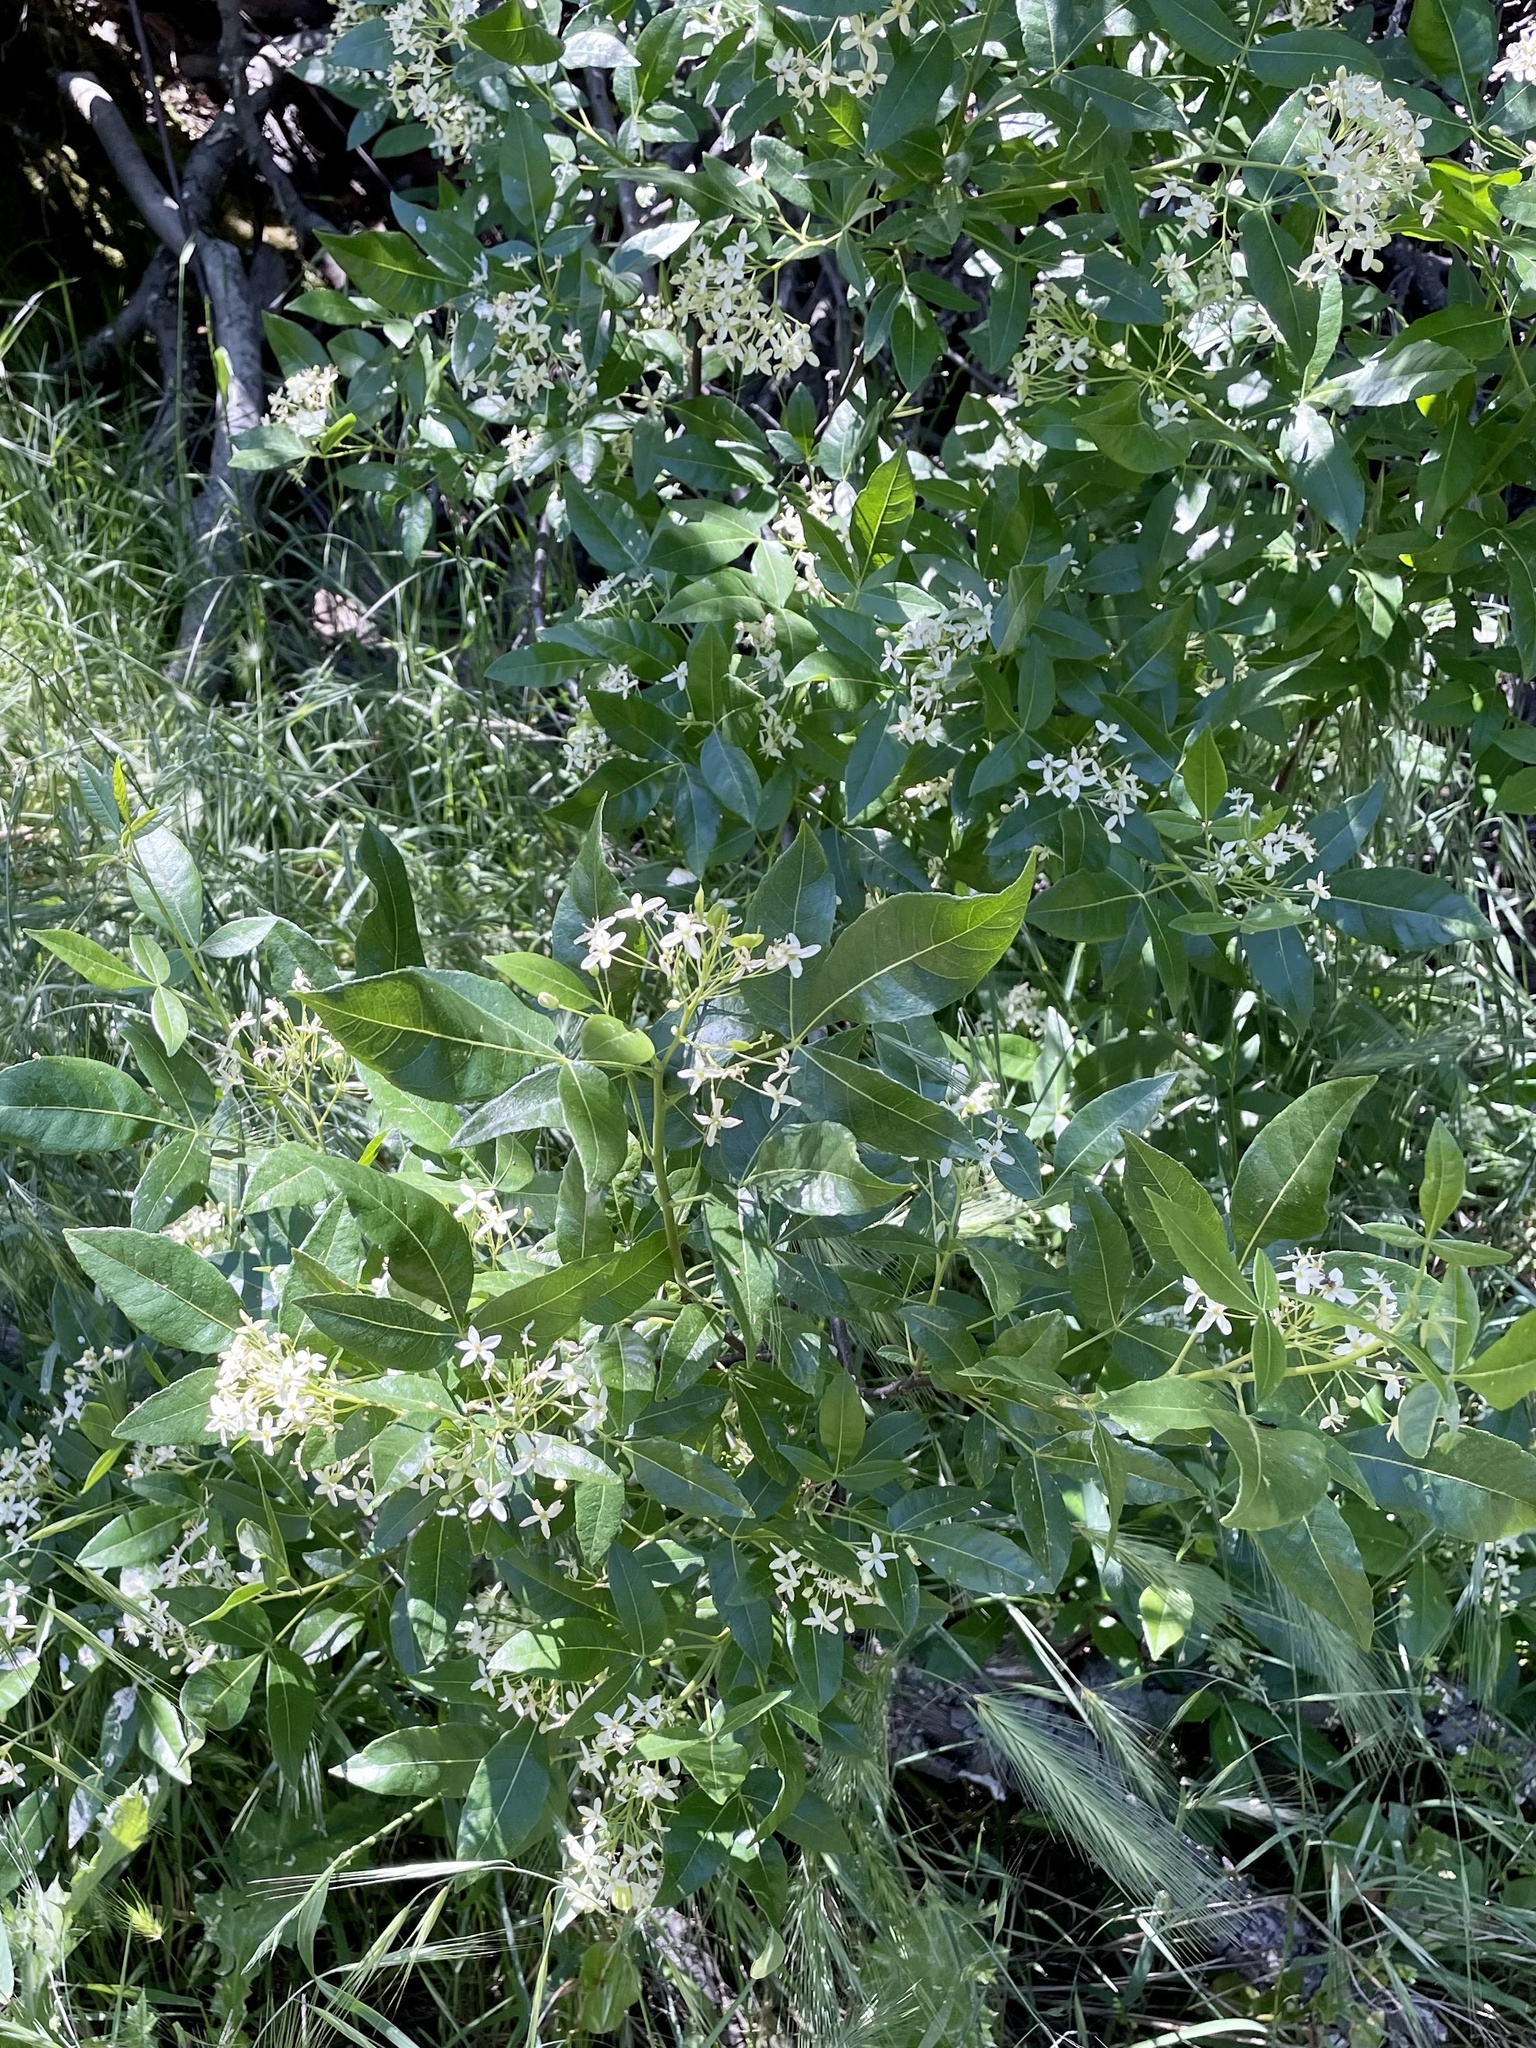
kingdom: Plantae
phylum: Tracheophyta
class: Magnoliopsida
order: Sapindales
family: Rutaceae
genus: Ptelea
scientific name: Ptelea crenulata
